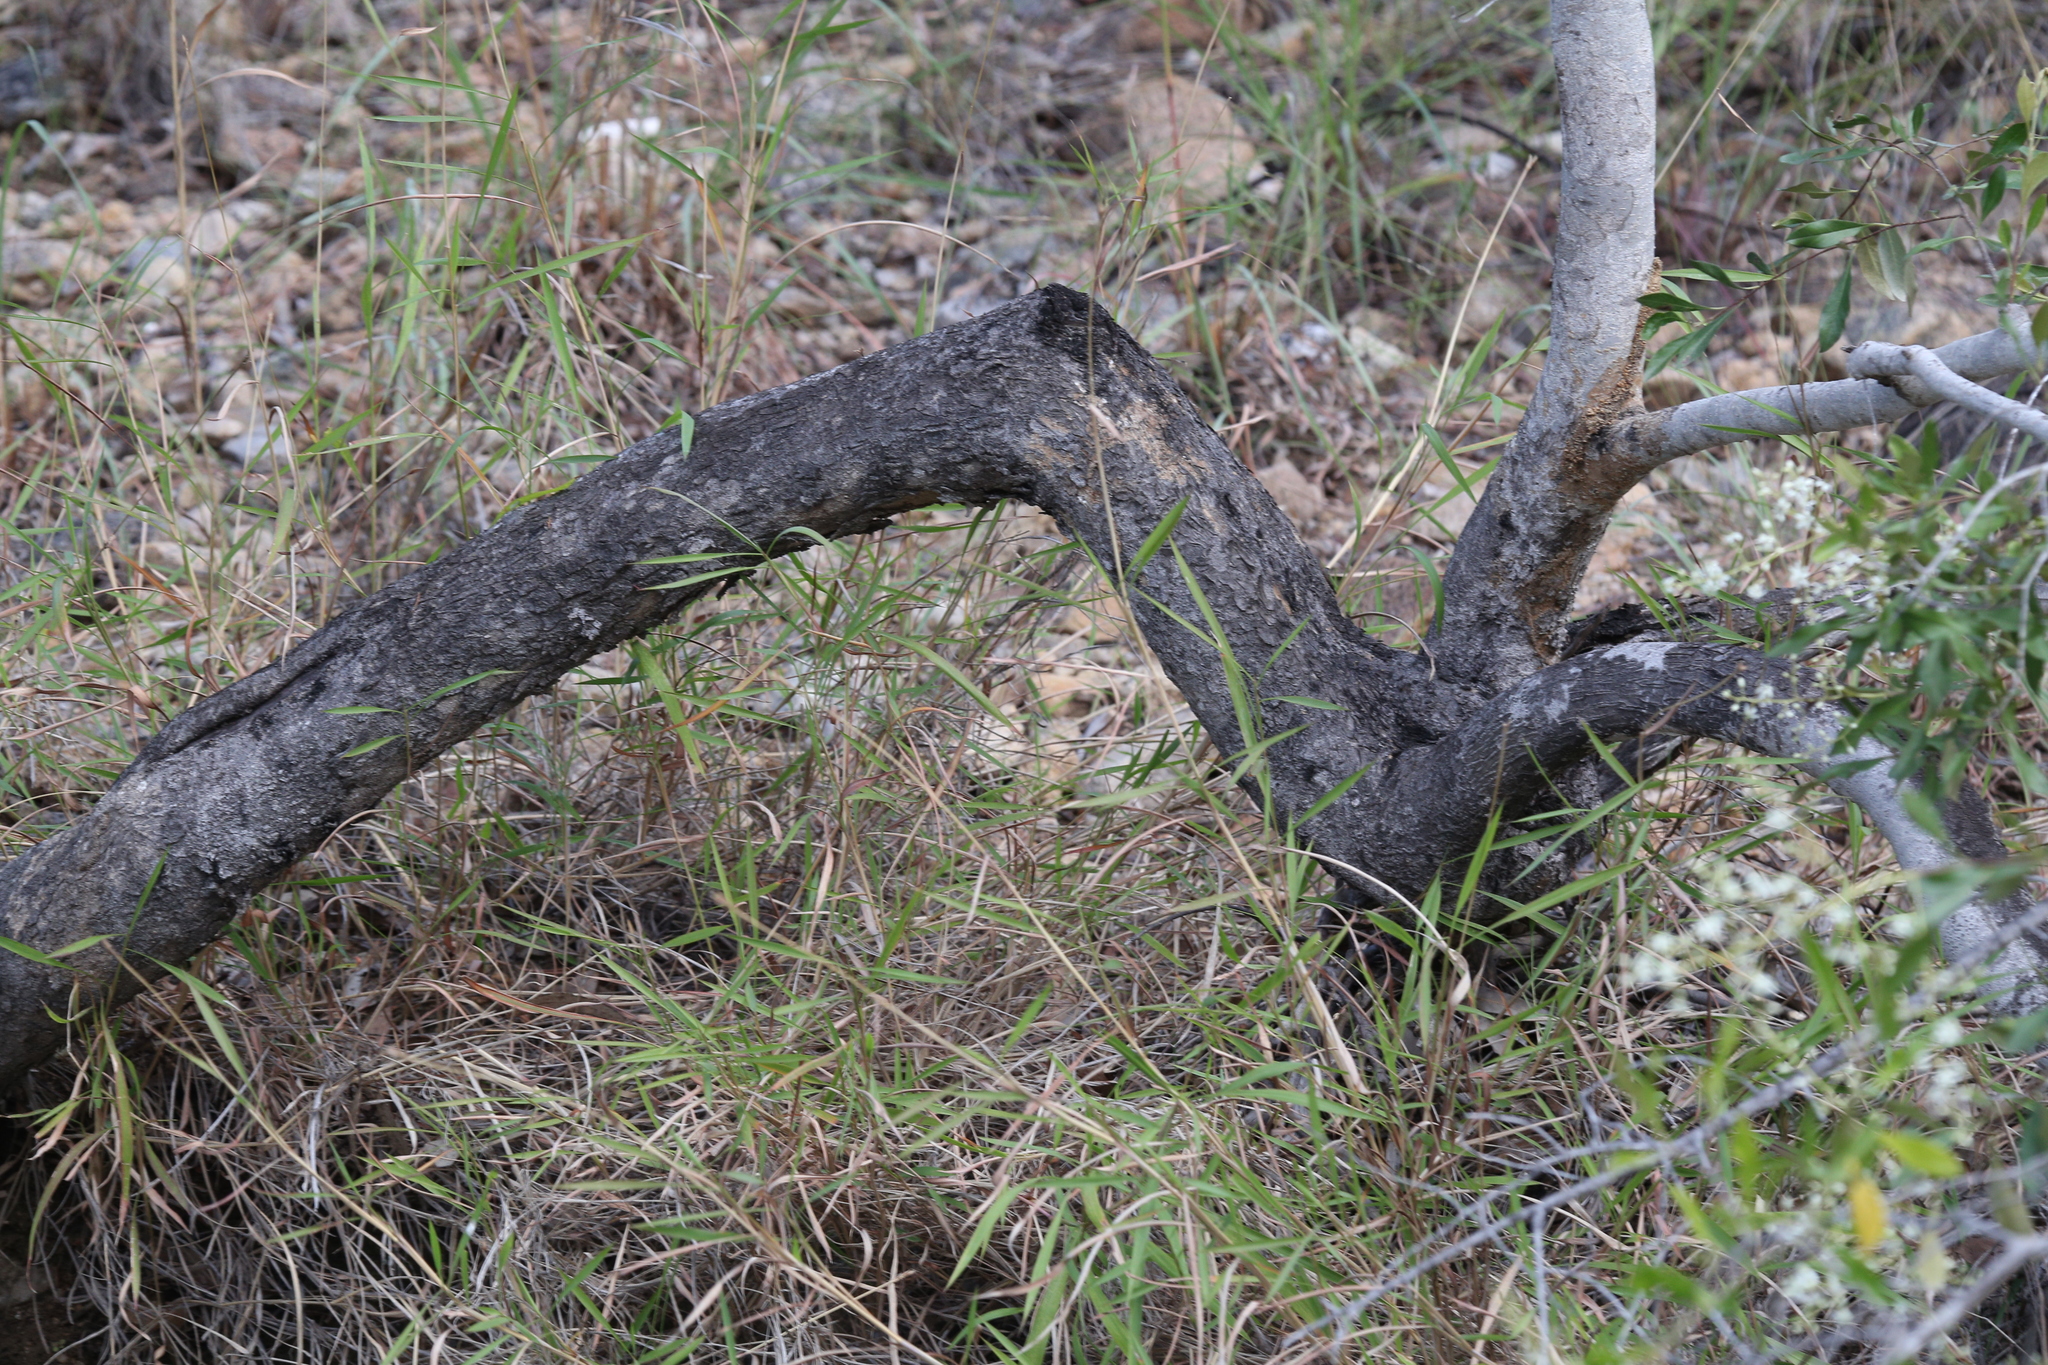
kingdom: Plantae
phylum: Tracheophyta
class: Magnoliopsida
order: Apiales
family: Pittosporaceae
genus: Bursaria
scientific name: Bursaria tenuifolia
